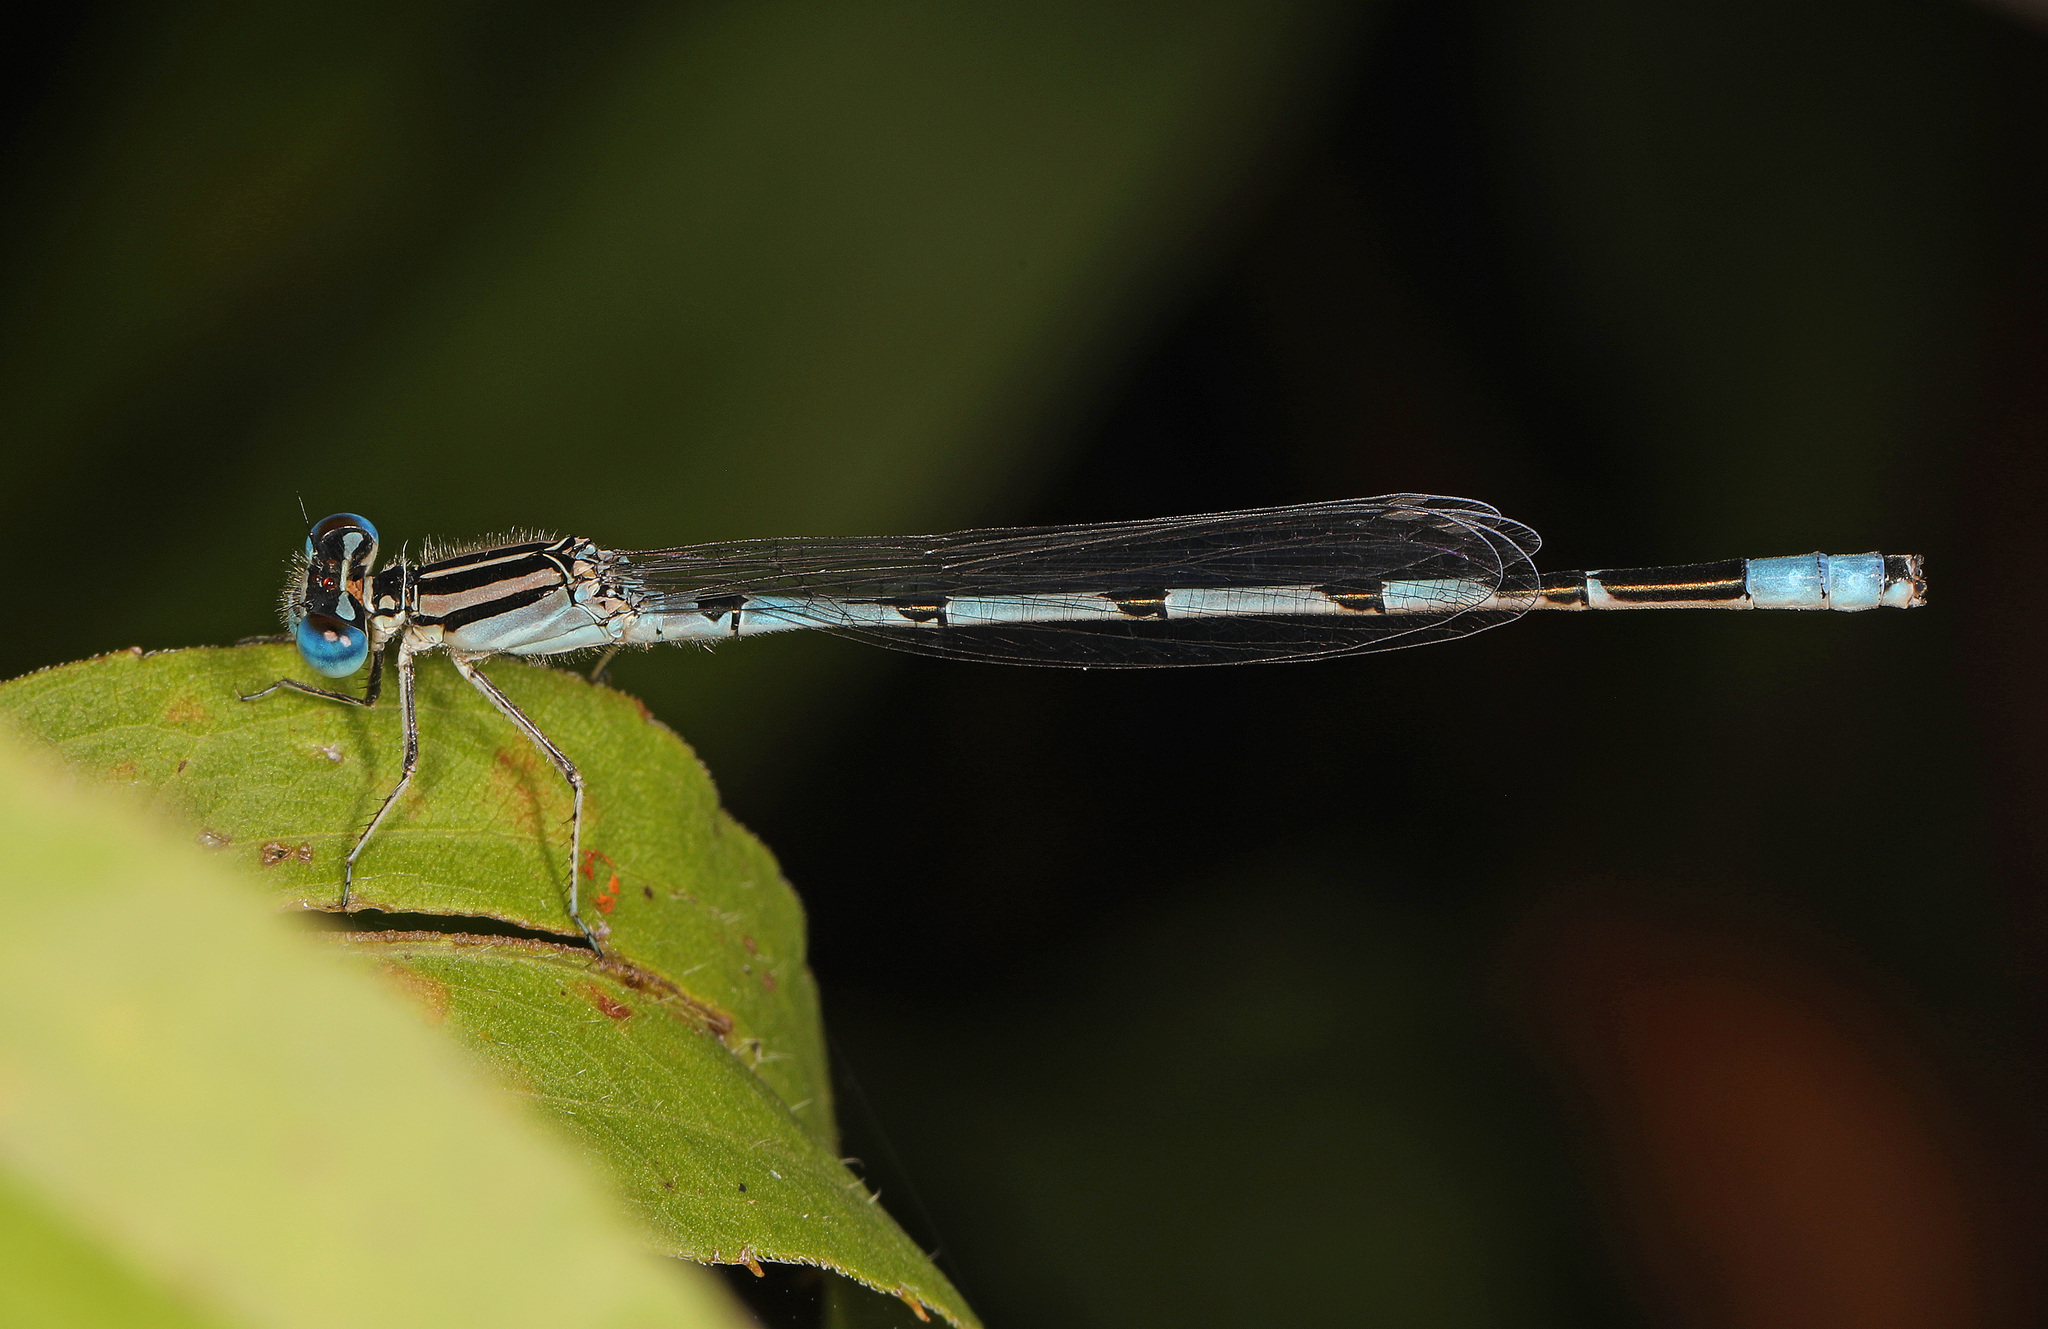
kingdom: Animalia
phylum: Arthropoda
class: Insecta
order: Odonata
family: Coenagrionidae
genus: Enallagma
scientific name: Enallagma durum
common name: Big bluet
